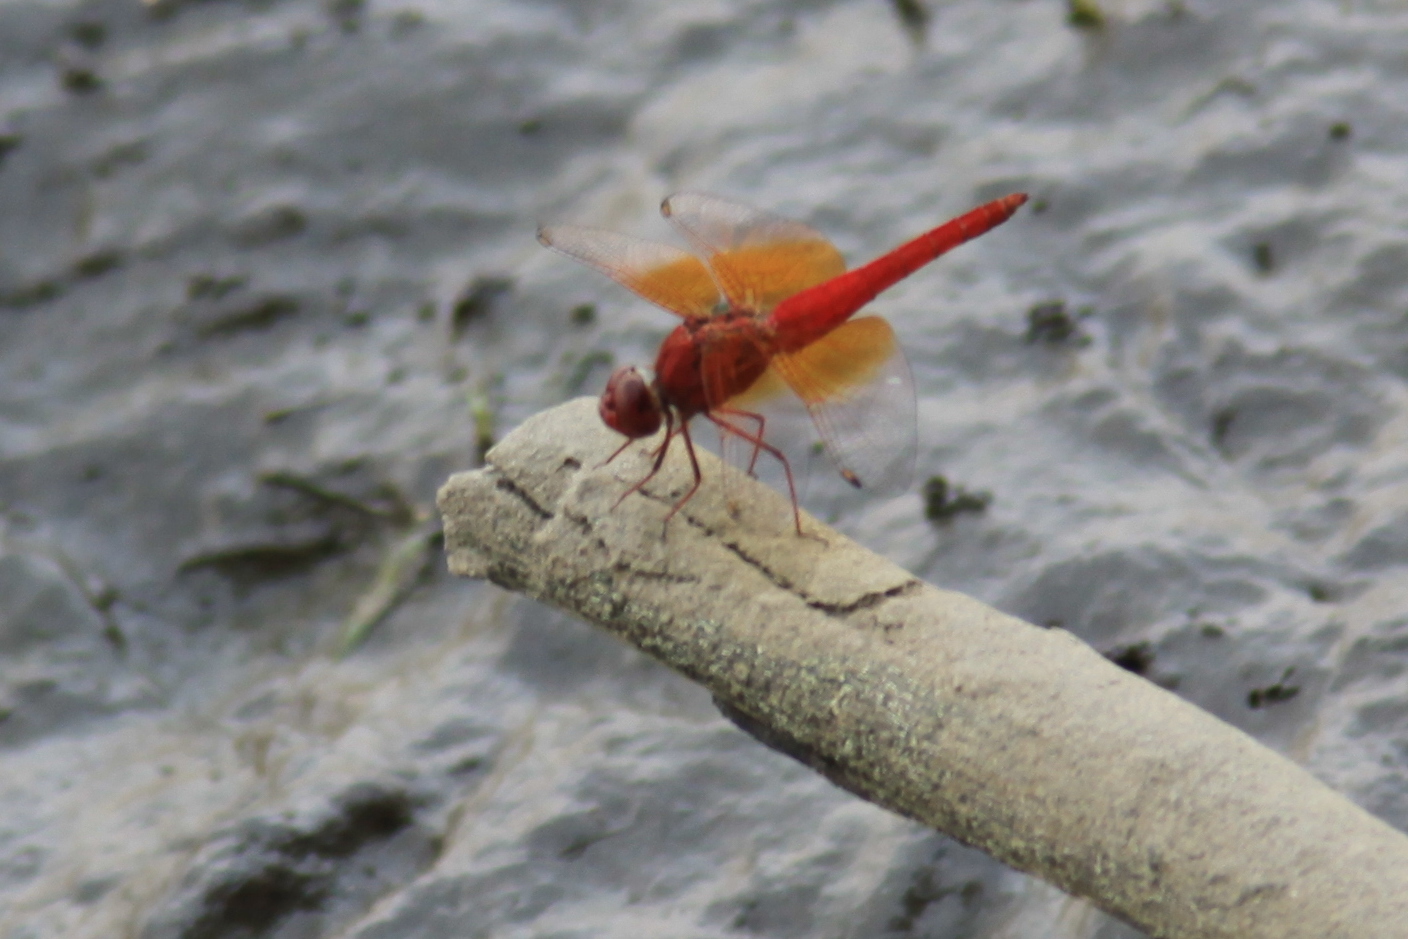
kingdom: Animalia
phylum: Arthropoda
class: Insecta
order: Odonata
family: Libellulidae
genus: Brachythemis
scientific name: Brachythemis lacustris
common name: Red groundling
